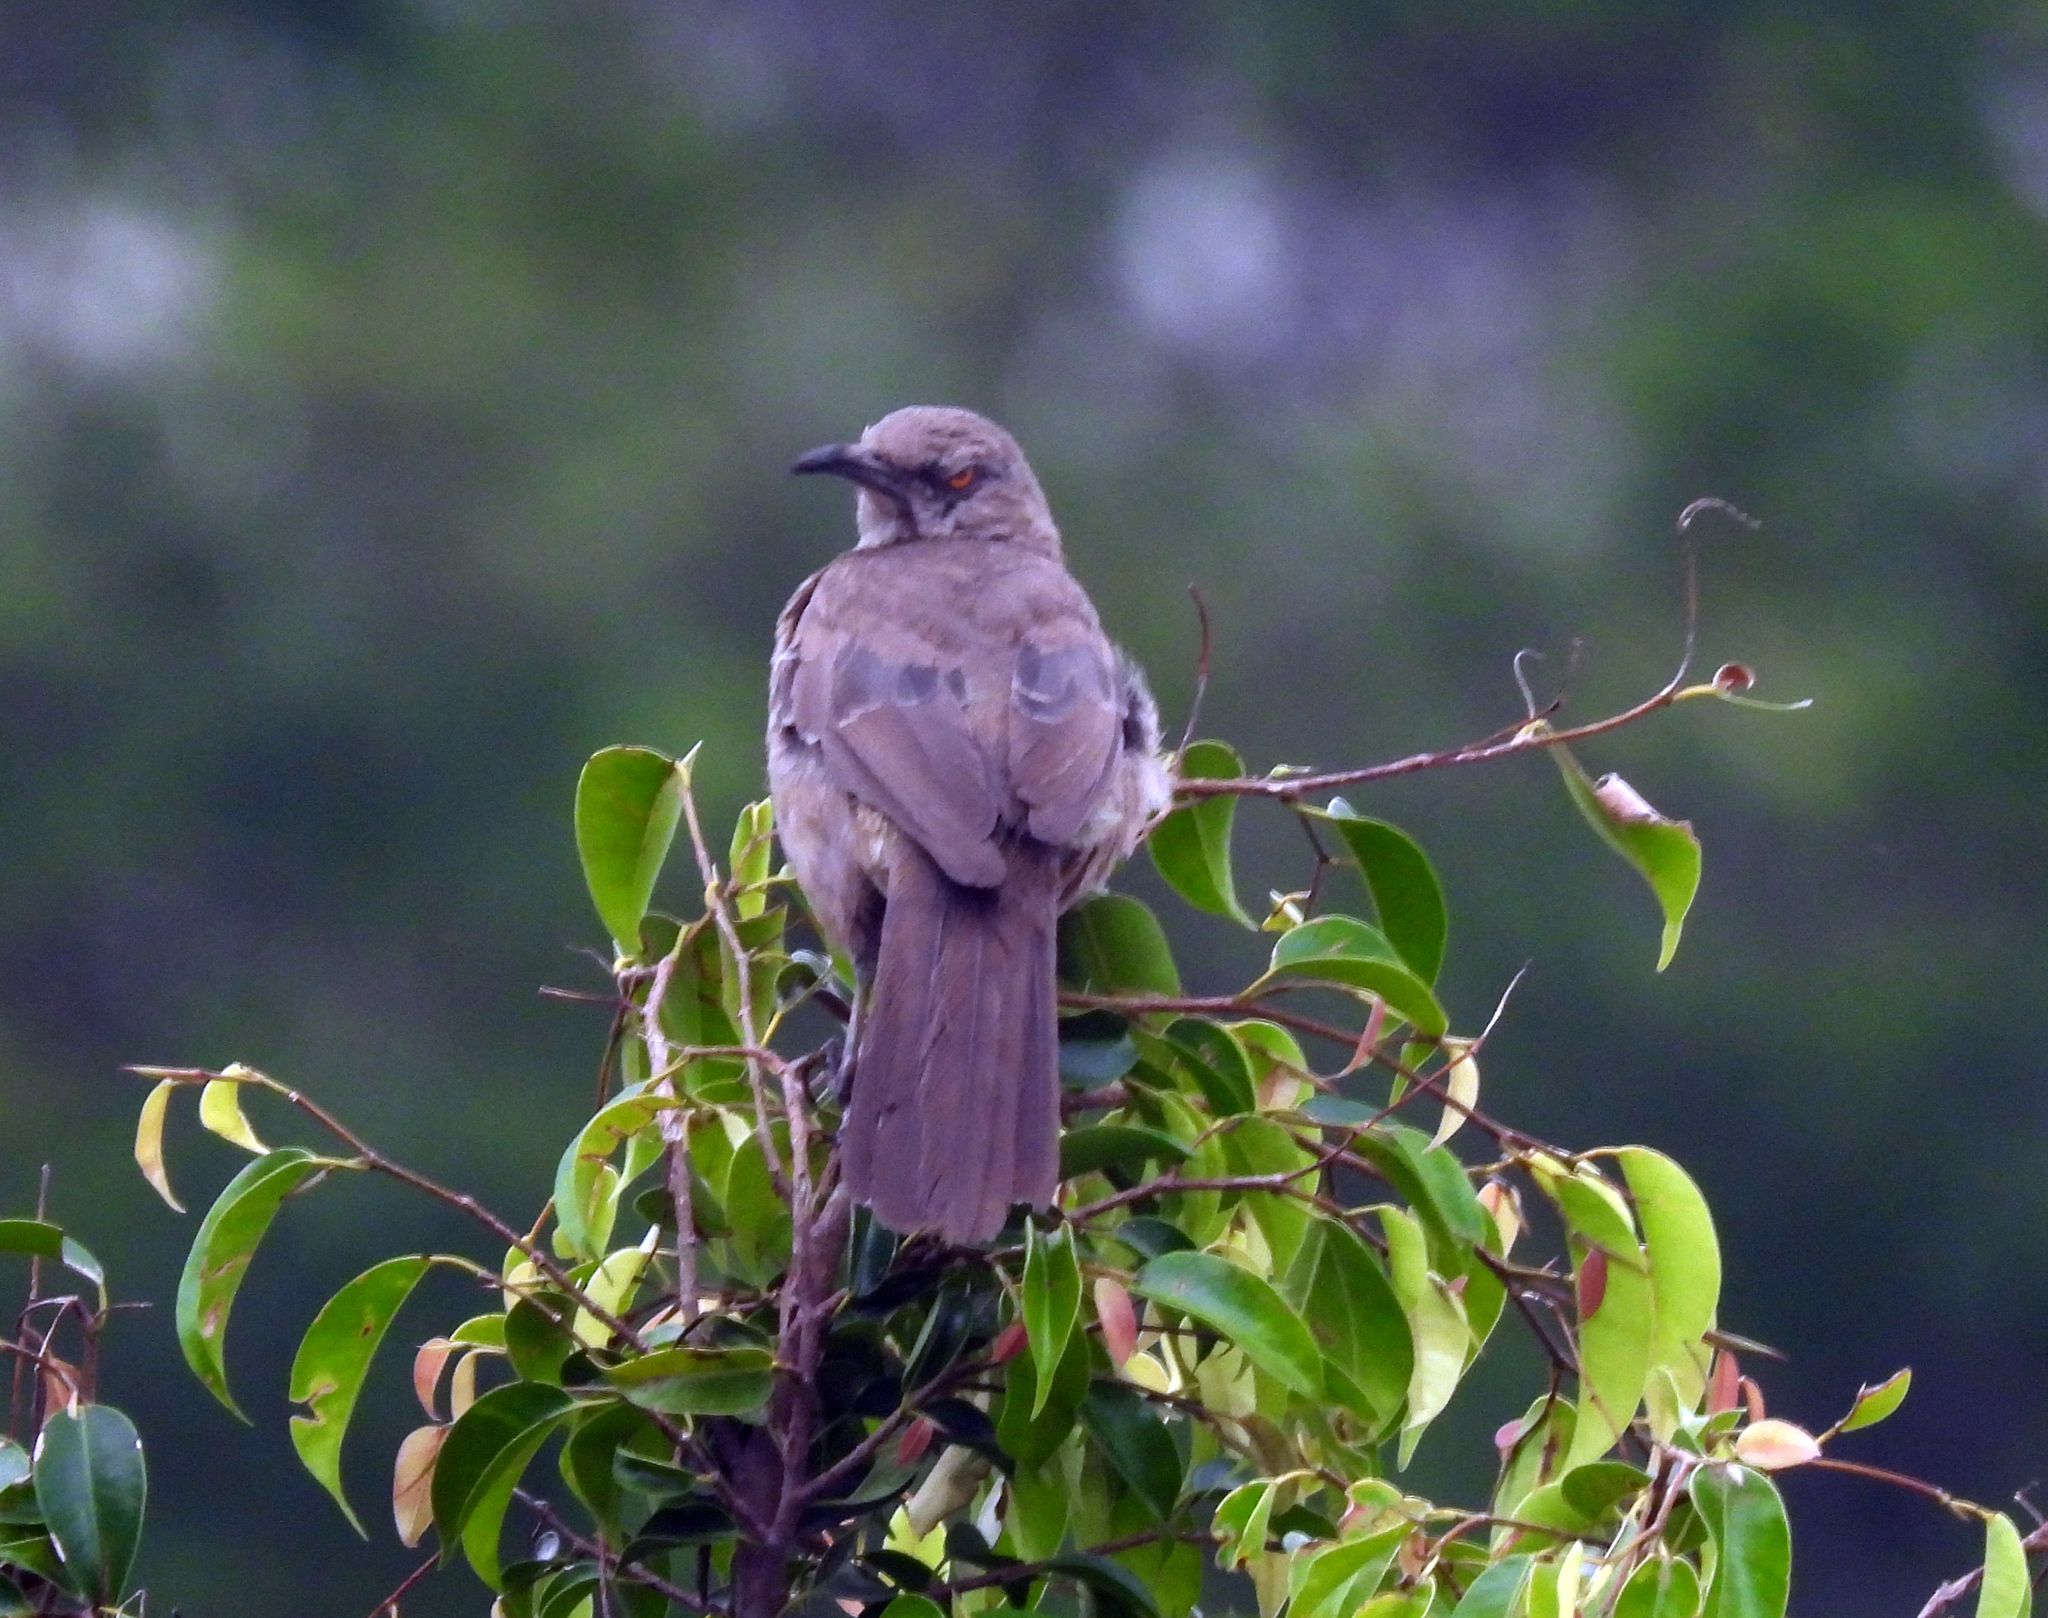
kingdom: Animalia
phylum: Chordata
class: Aves
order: Passeriformes
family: Mimidae
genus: Toxostoma
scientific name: Toxostoma curvirostre
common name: Curve-billed thrasher
